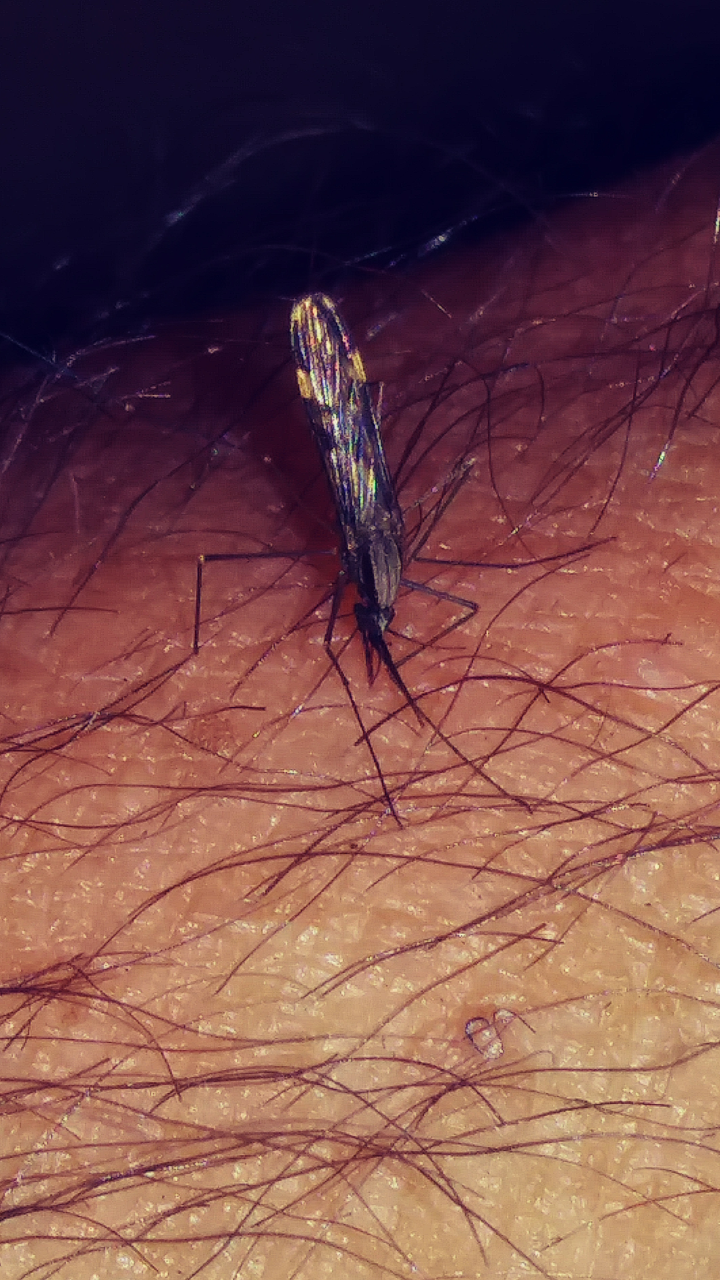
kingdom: Animalia
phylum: Arthropoda
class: Insecta
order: Diptera
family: Culicidae
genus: Anopheles
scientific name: Anopheles punctipennis
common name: Woodland malaria mosquito
